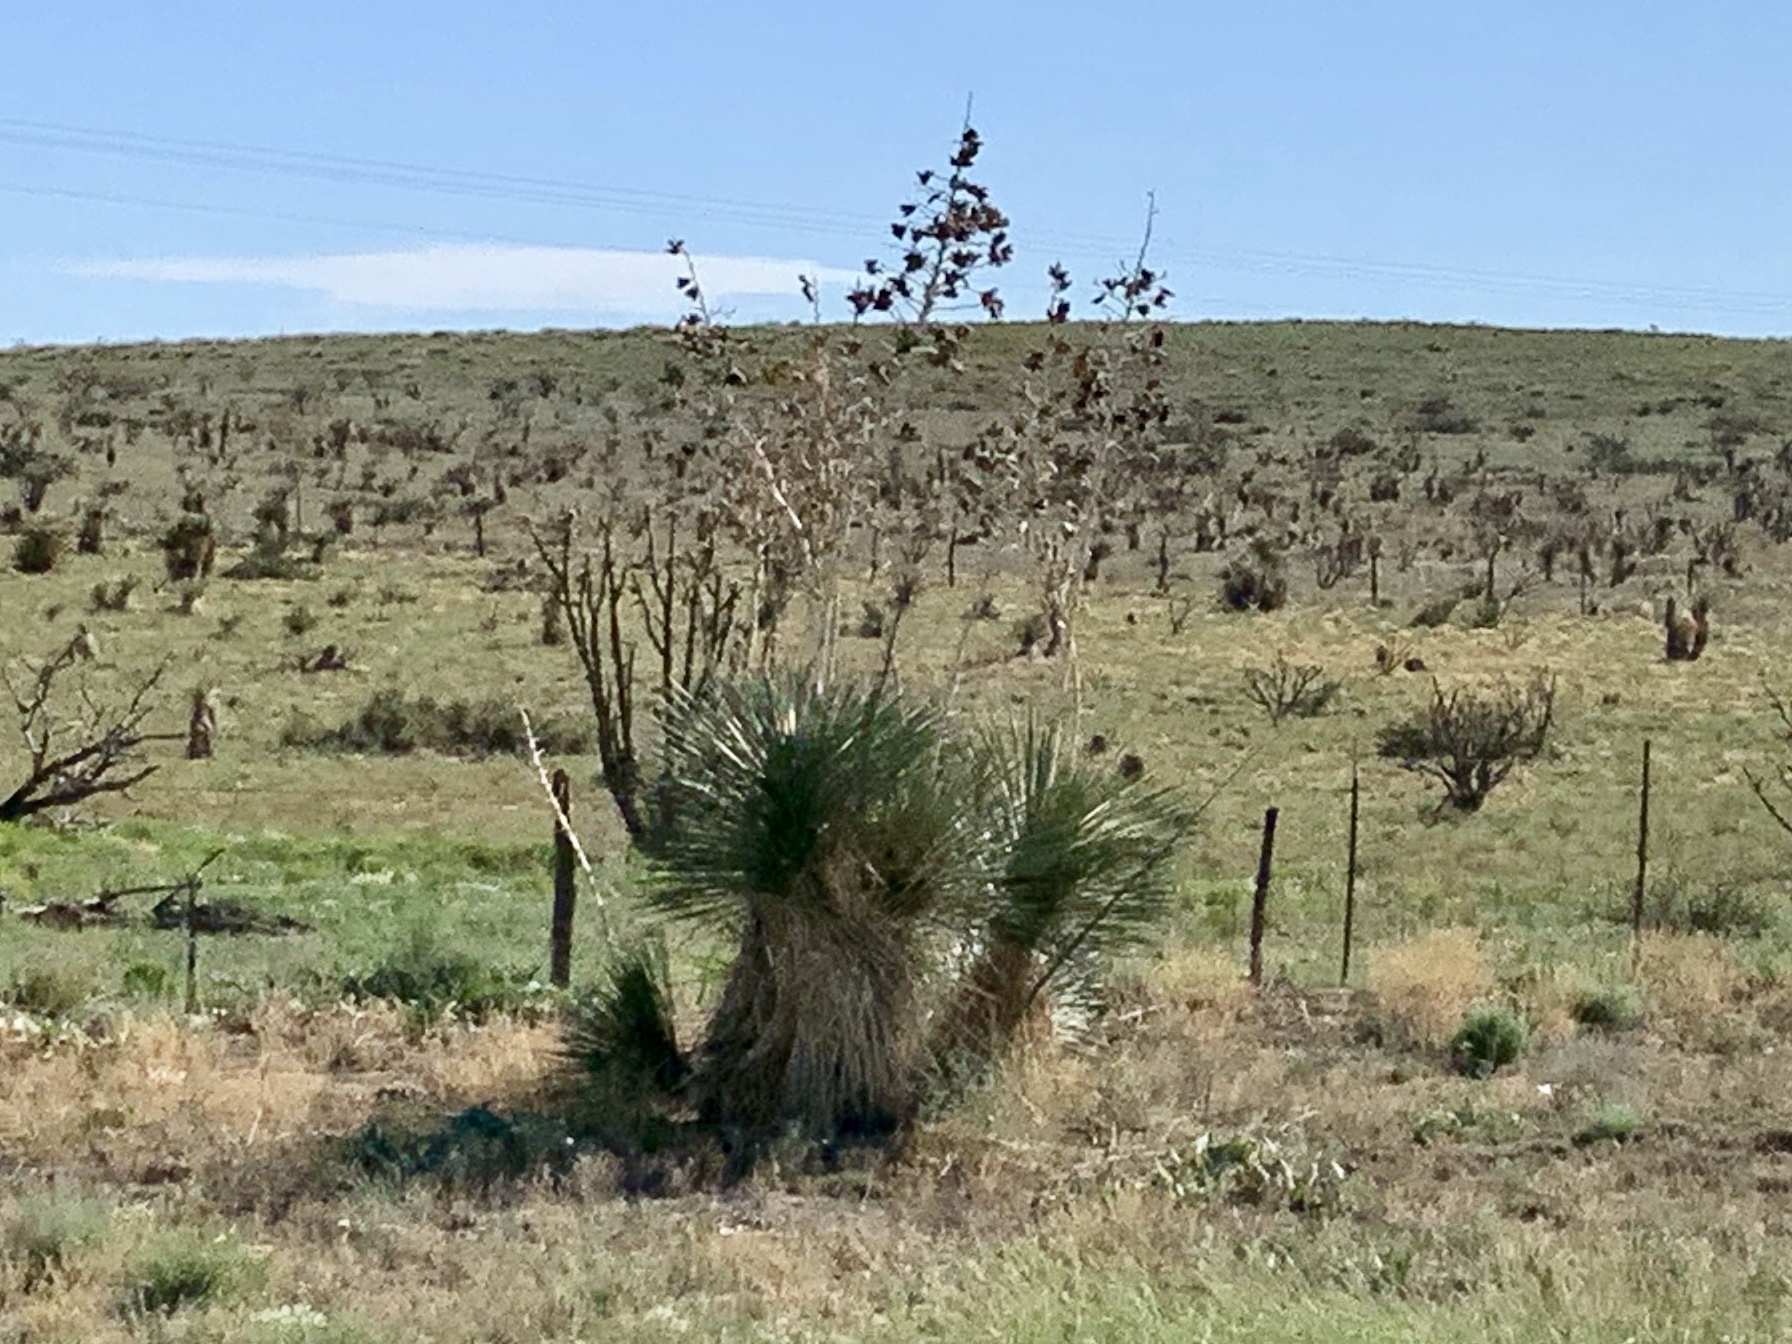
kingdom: Plantae
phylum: Tracheophyta
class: Liliopsida
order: Asparagales
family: Asparagaceae
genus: Yucca
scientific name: Yucca elata
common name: Palmella
